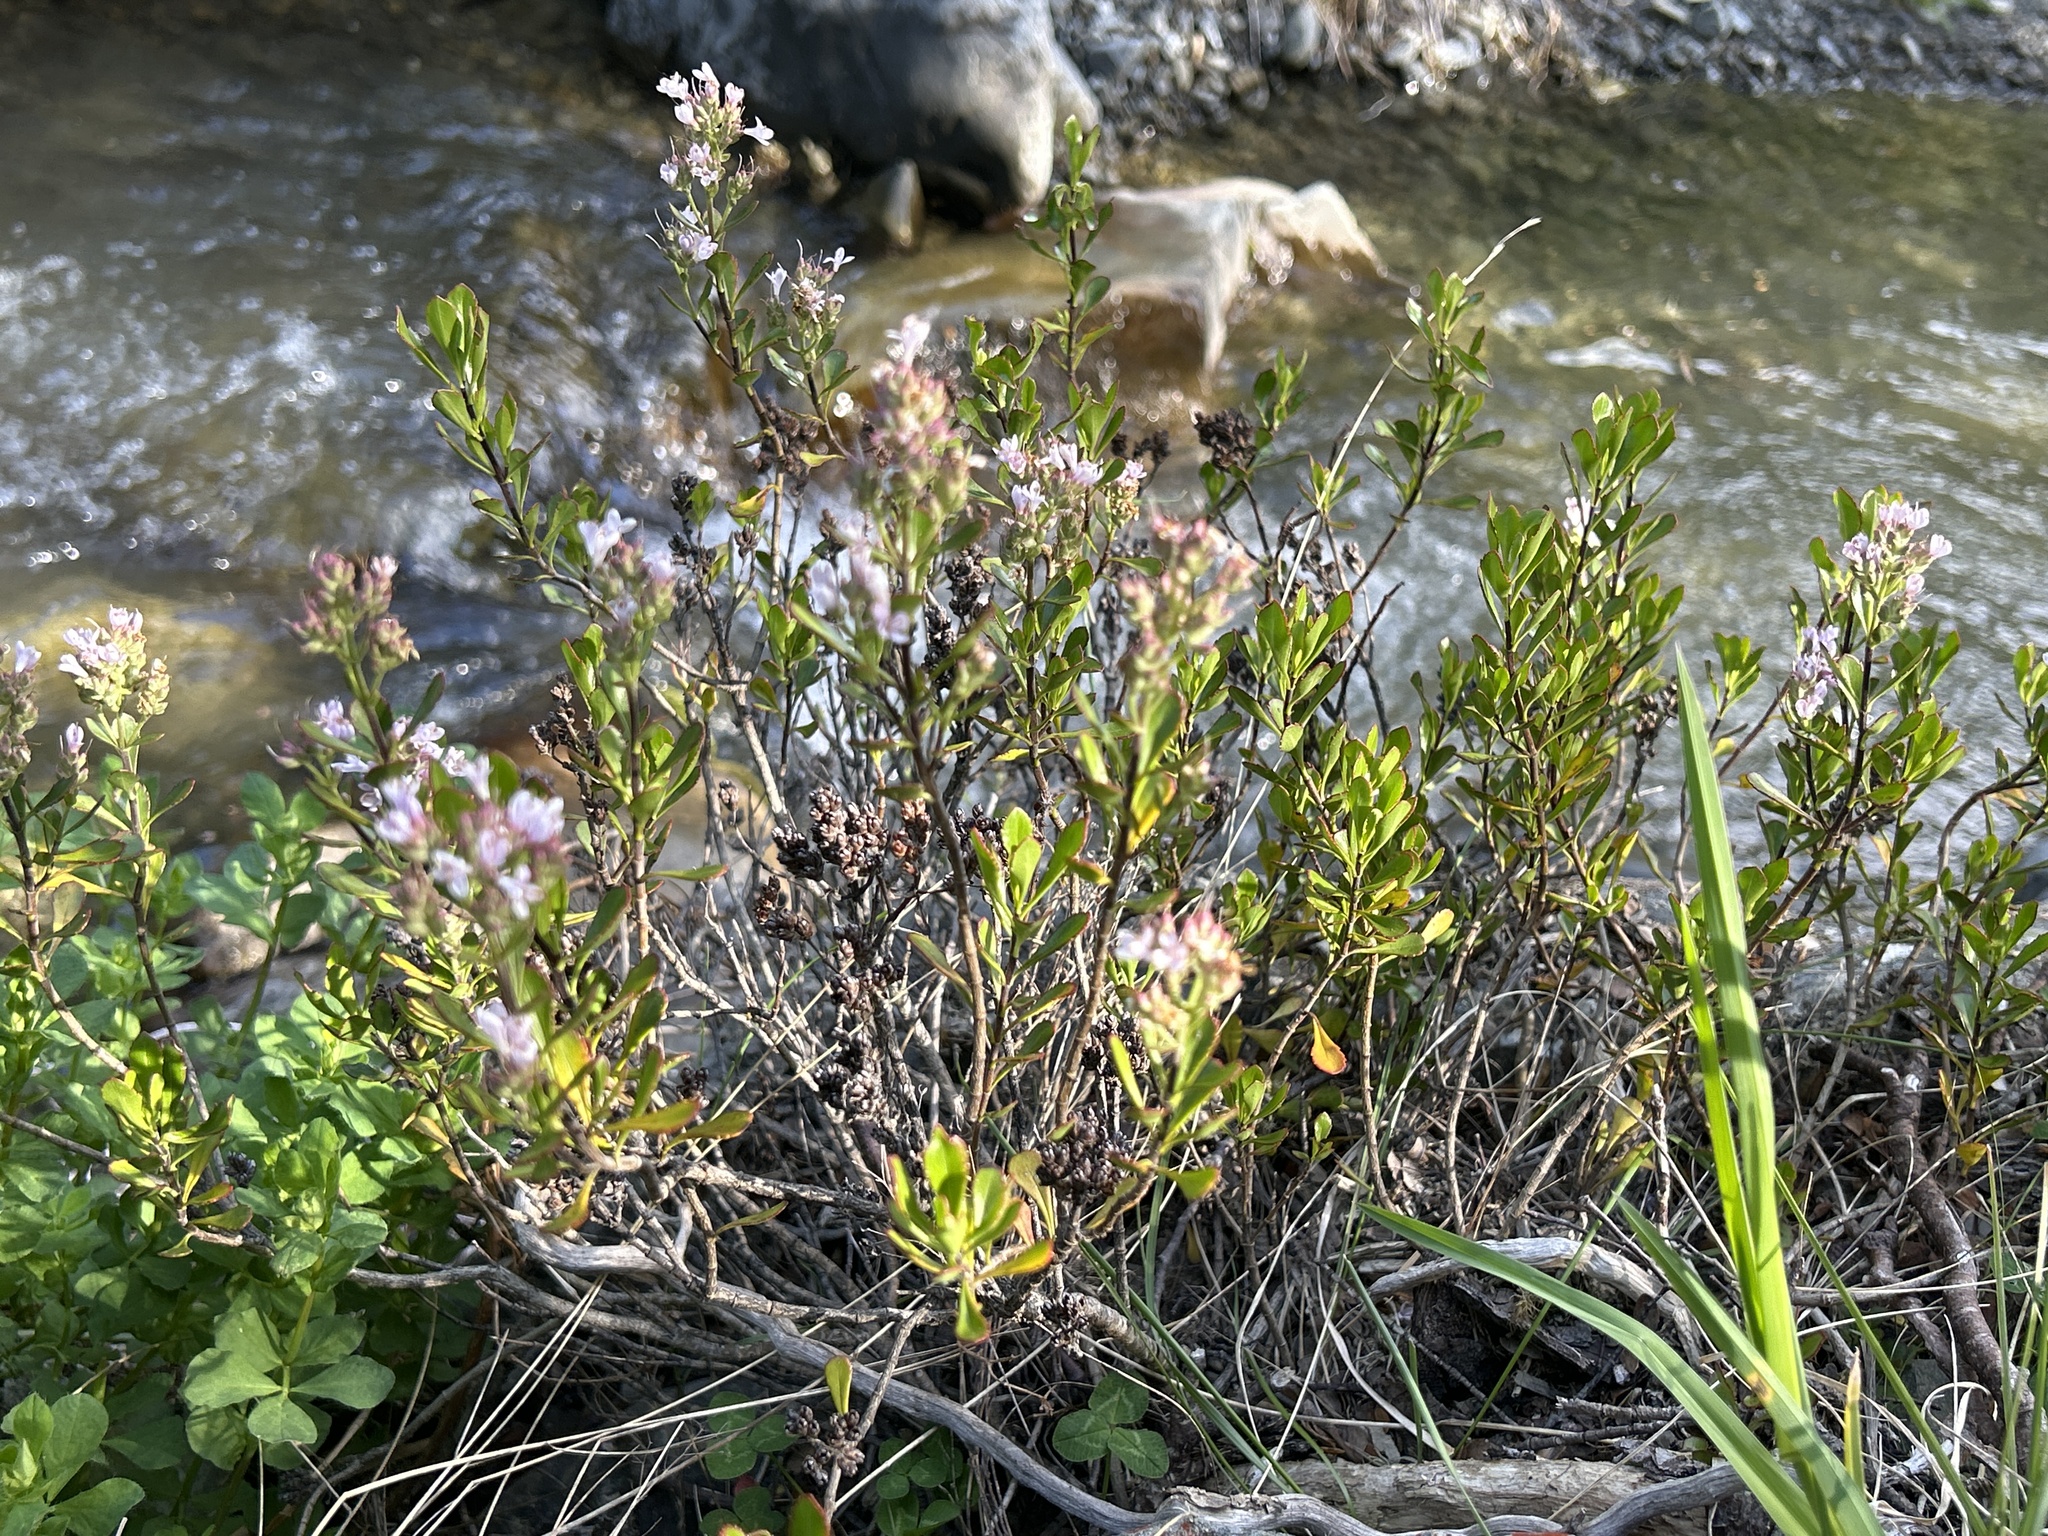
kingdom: Plantae
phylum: Tracheophyta
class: Magnoliopsida
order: Lamiales
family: Plantaginaceae
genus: Veronica
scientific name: Veronica raoulii
